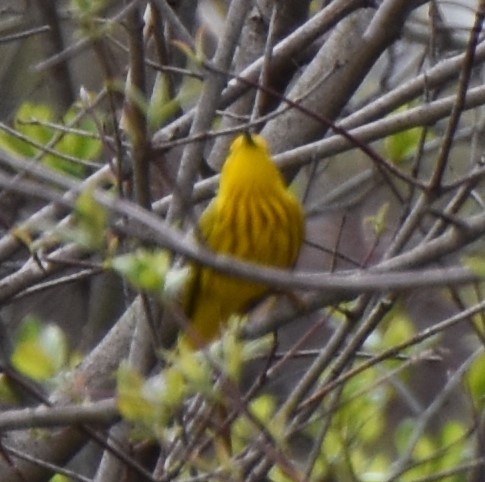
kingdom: Animalia
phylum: Chordata
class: Aves
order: Passeriformes
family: Parulidae
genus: Setophaga
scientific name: Setophaga petechia
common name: Yellow warbler
